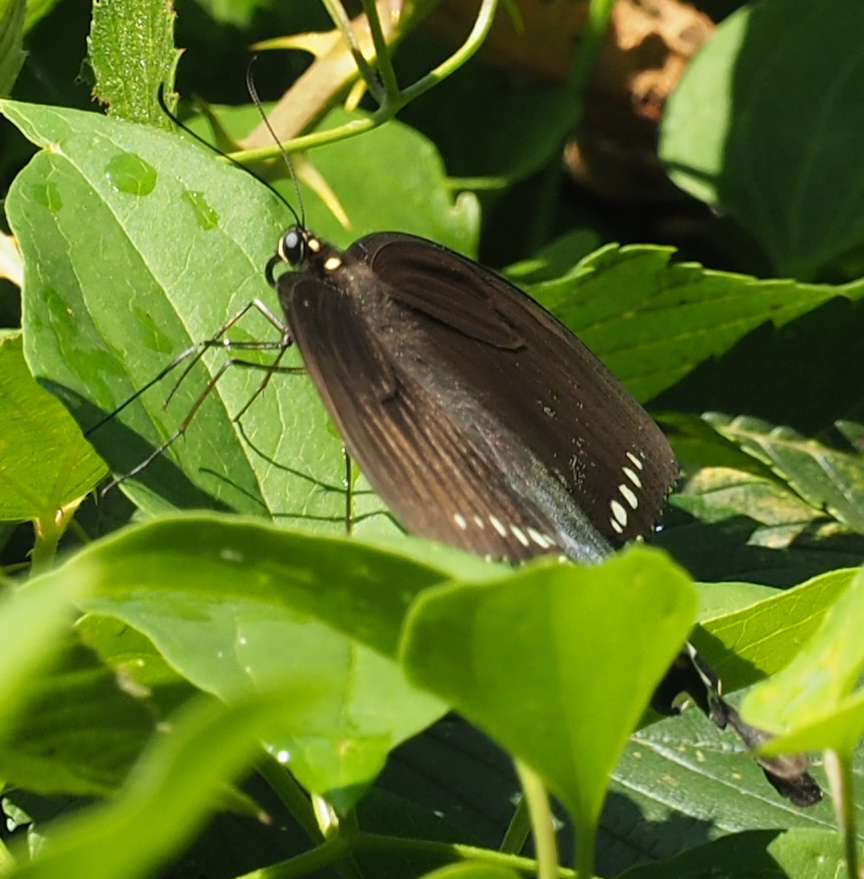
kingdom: Animalia
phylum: Arthropoda
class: Insecta
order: Lepidoptera
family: Papilionidae
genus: Papilio
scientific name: Papilio troilus
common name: Spicebush swallowtail
